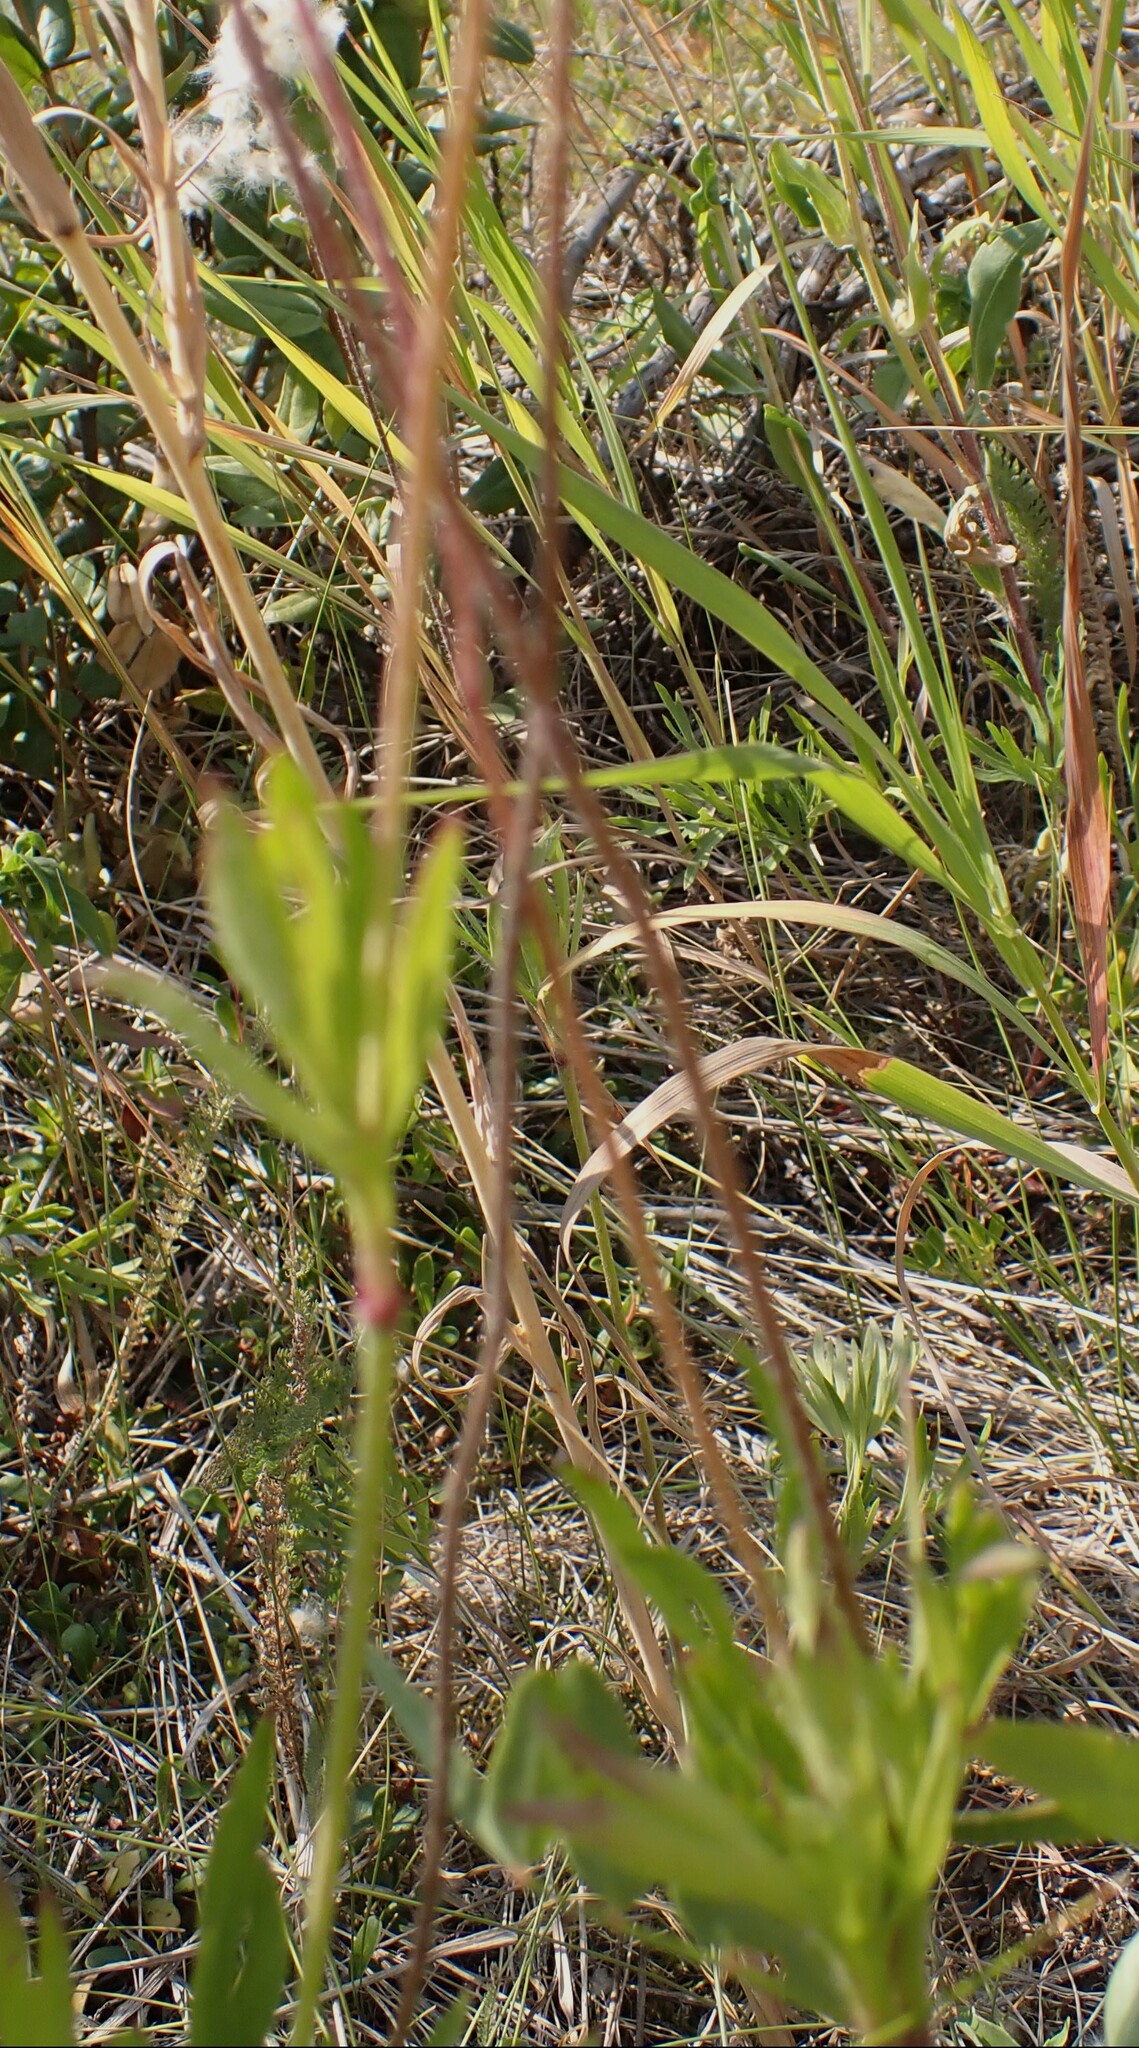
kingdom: Plantae
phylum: Tracheophyta
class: Magnoliopsida
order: Ranunculales
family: Ranunculaceae
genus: Anemone
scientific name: Anemone multifida
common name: Bird's-foot anemone
